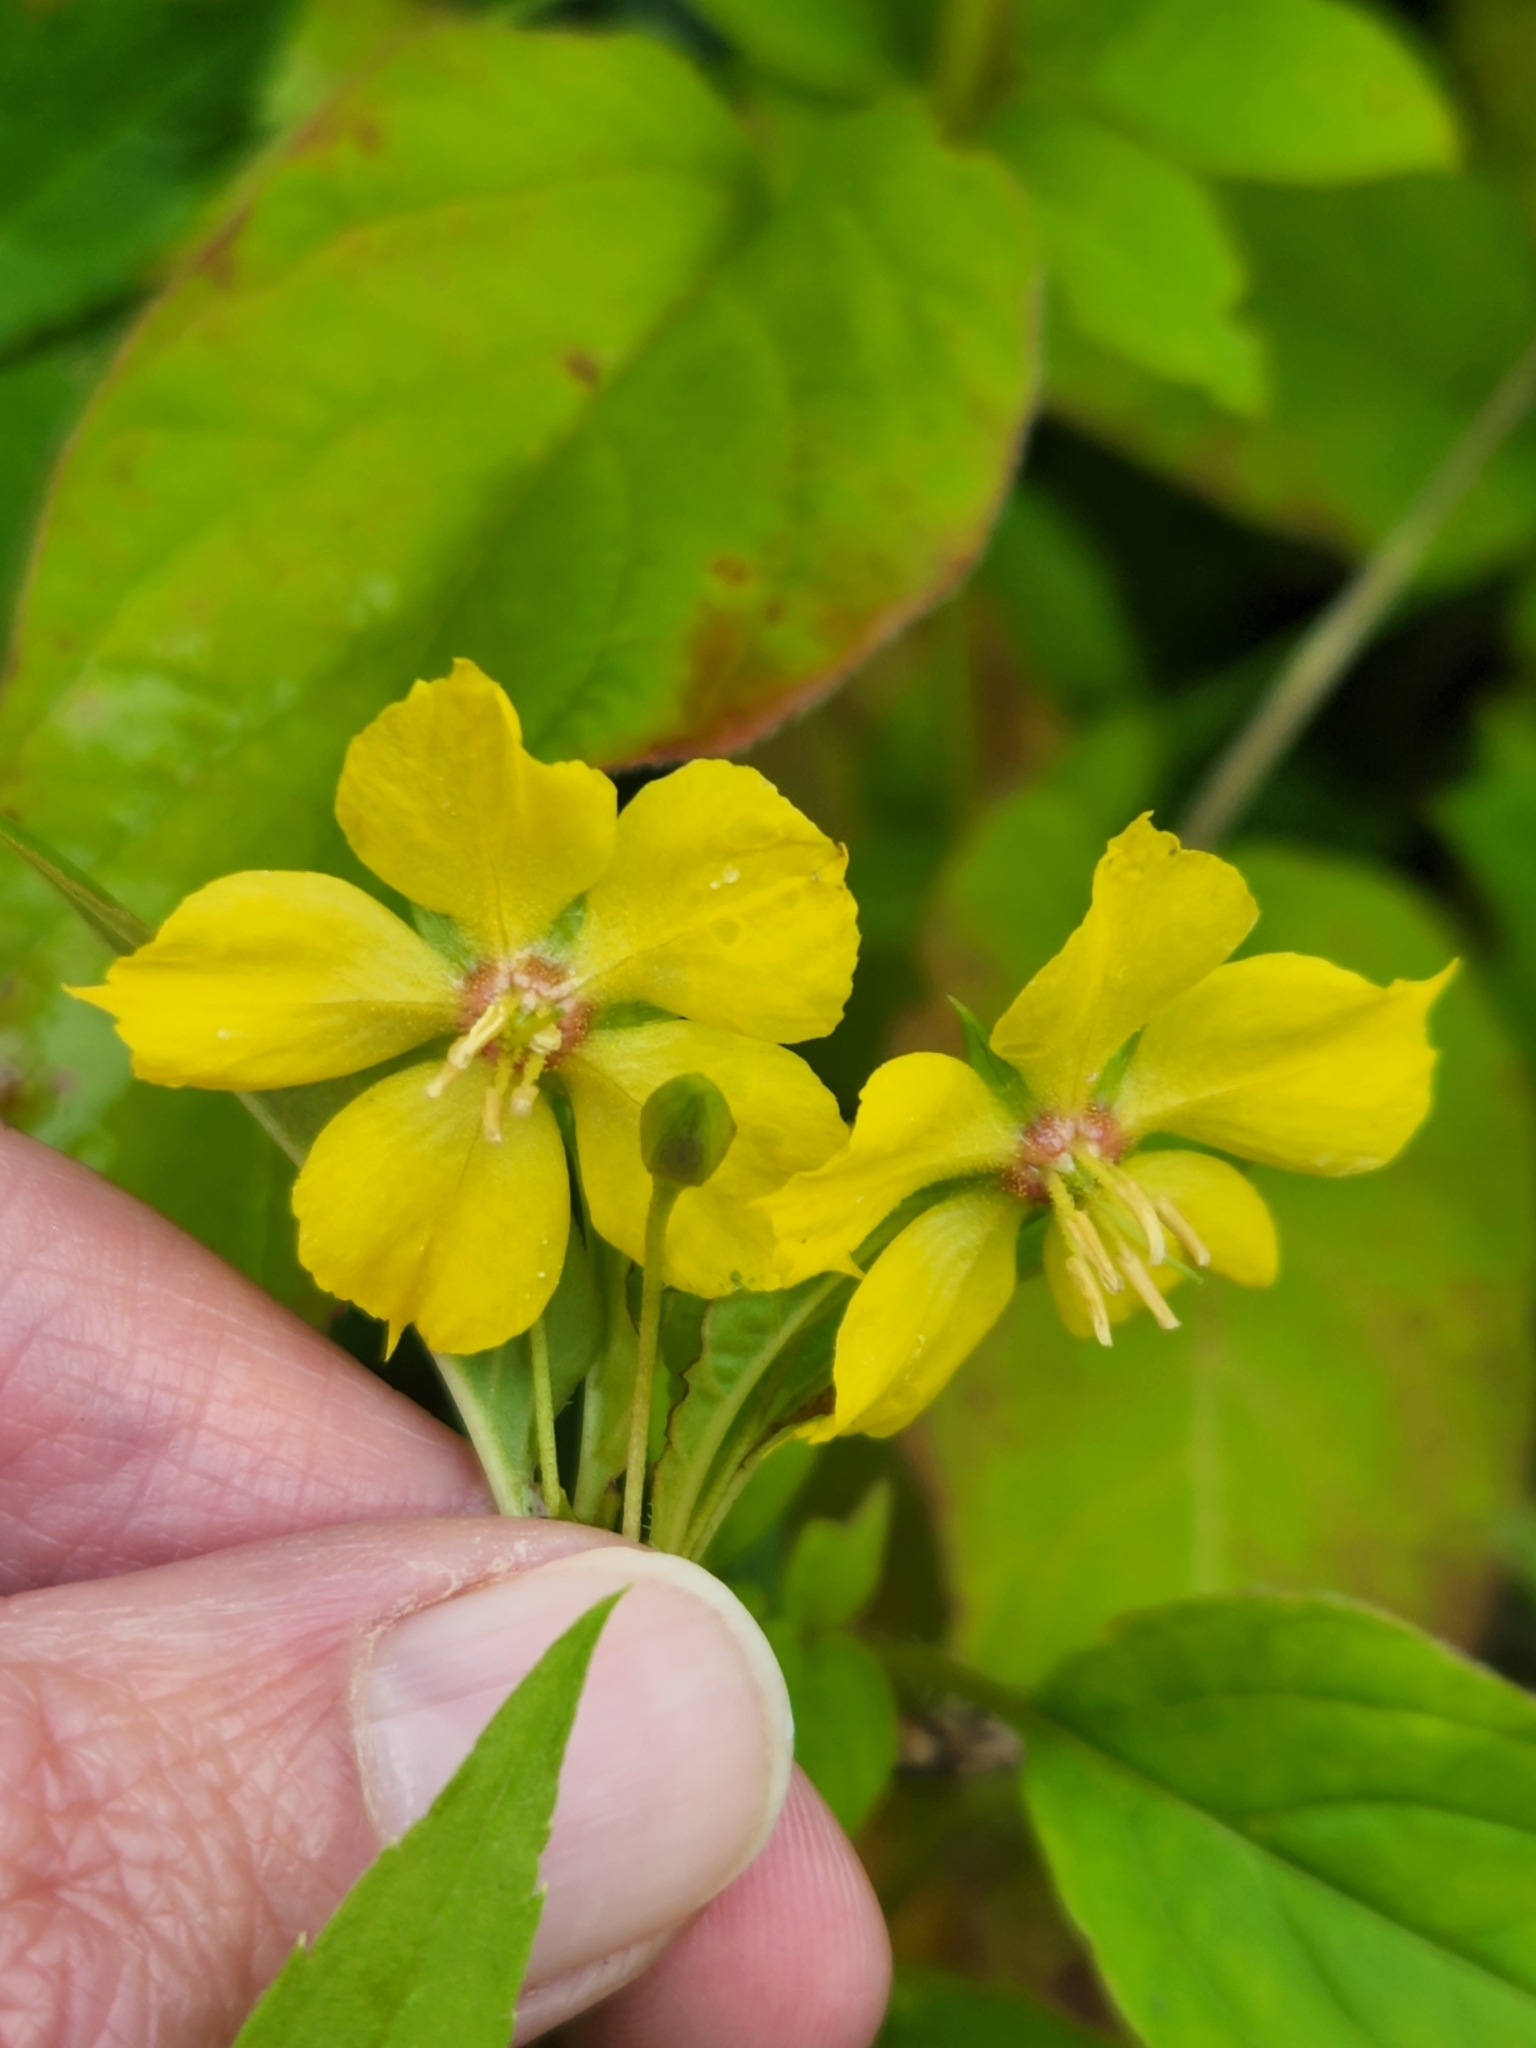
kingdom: Plantae
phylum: Tracheophyta
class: Magnoliopsida
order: Ericales
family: Primulaceae
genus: Lysimachia
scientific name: Lysimachia ciliata
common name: Fringed loosestrife
